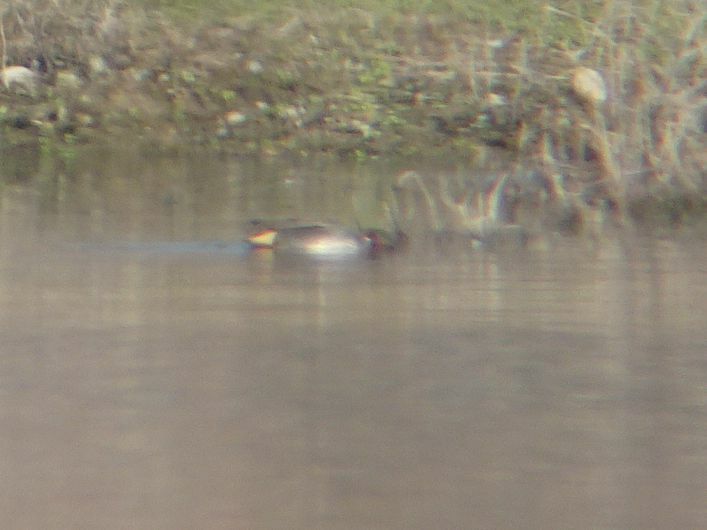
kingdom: Animalia
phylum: Chordata
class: Aves
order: Anseriformes
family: Anatidae
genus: Anas
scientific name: Anas crecca
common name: Eurasian teal
